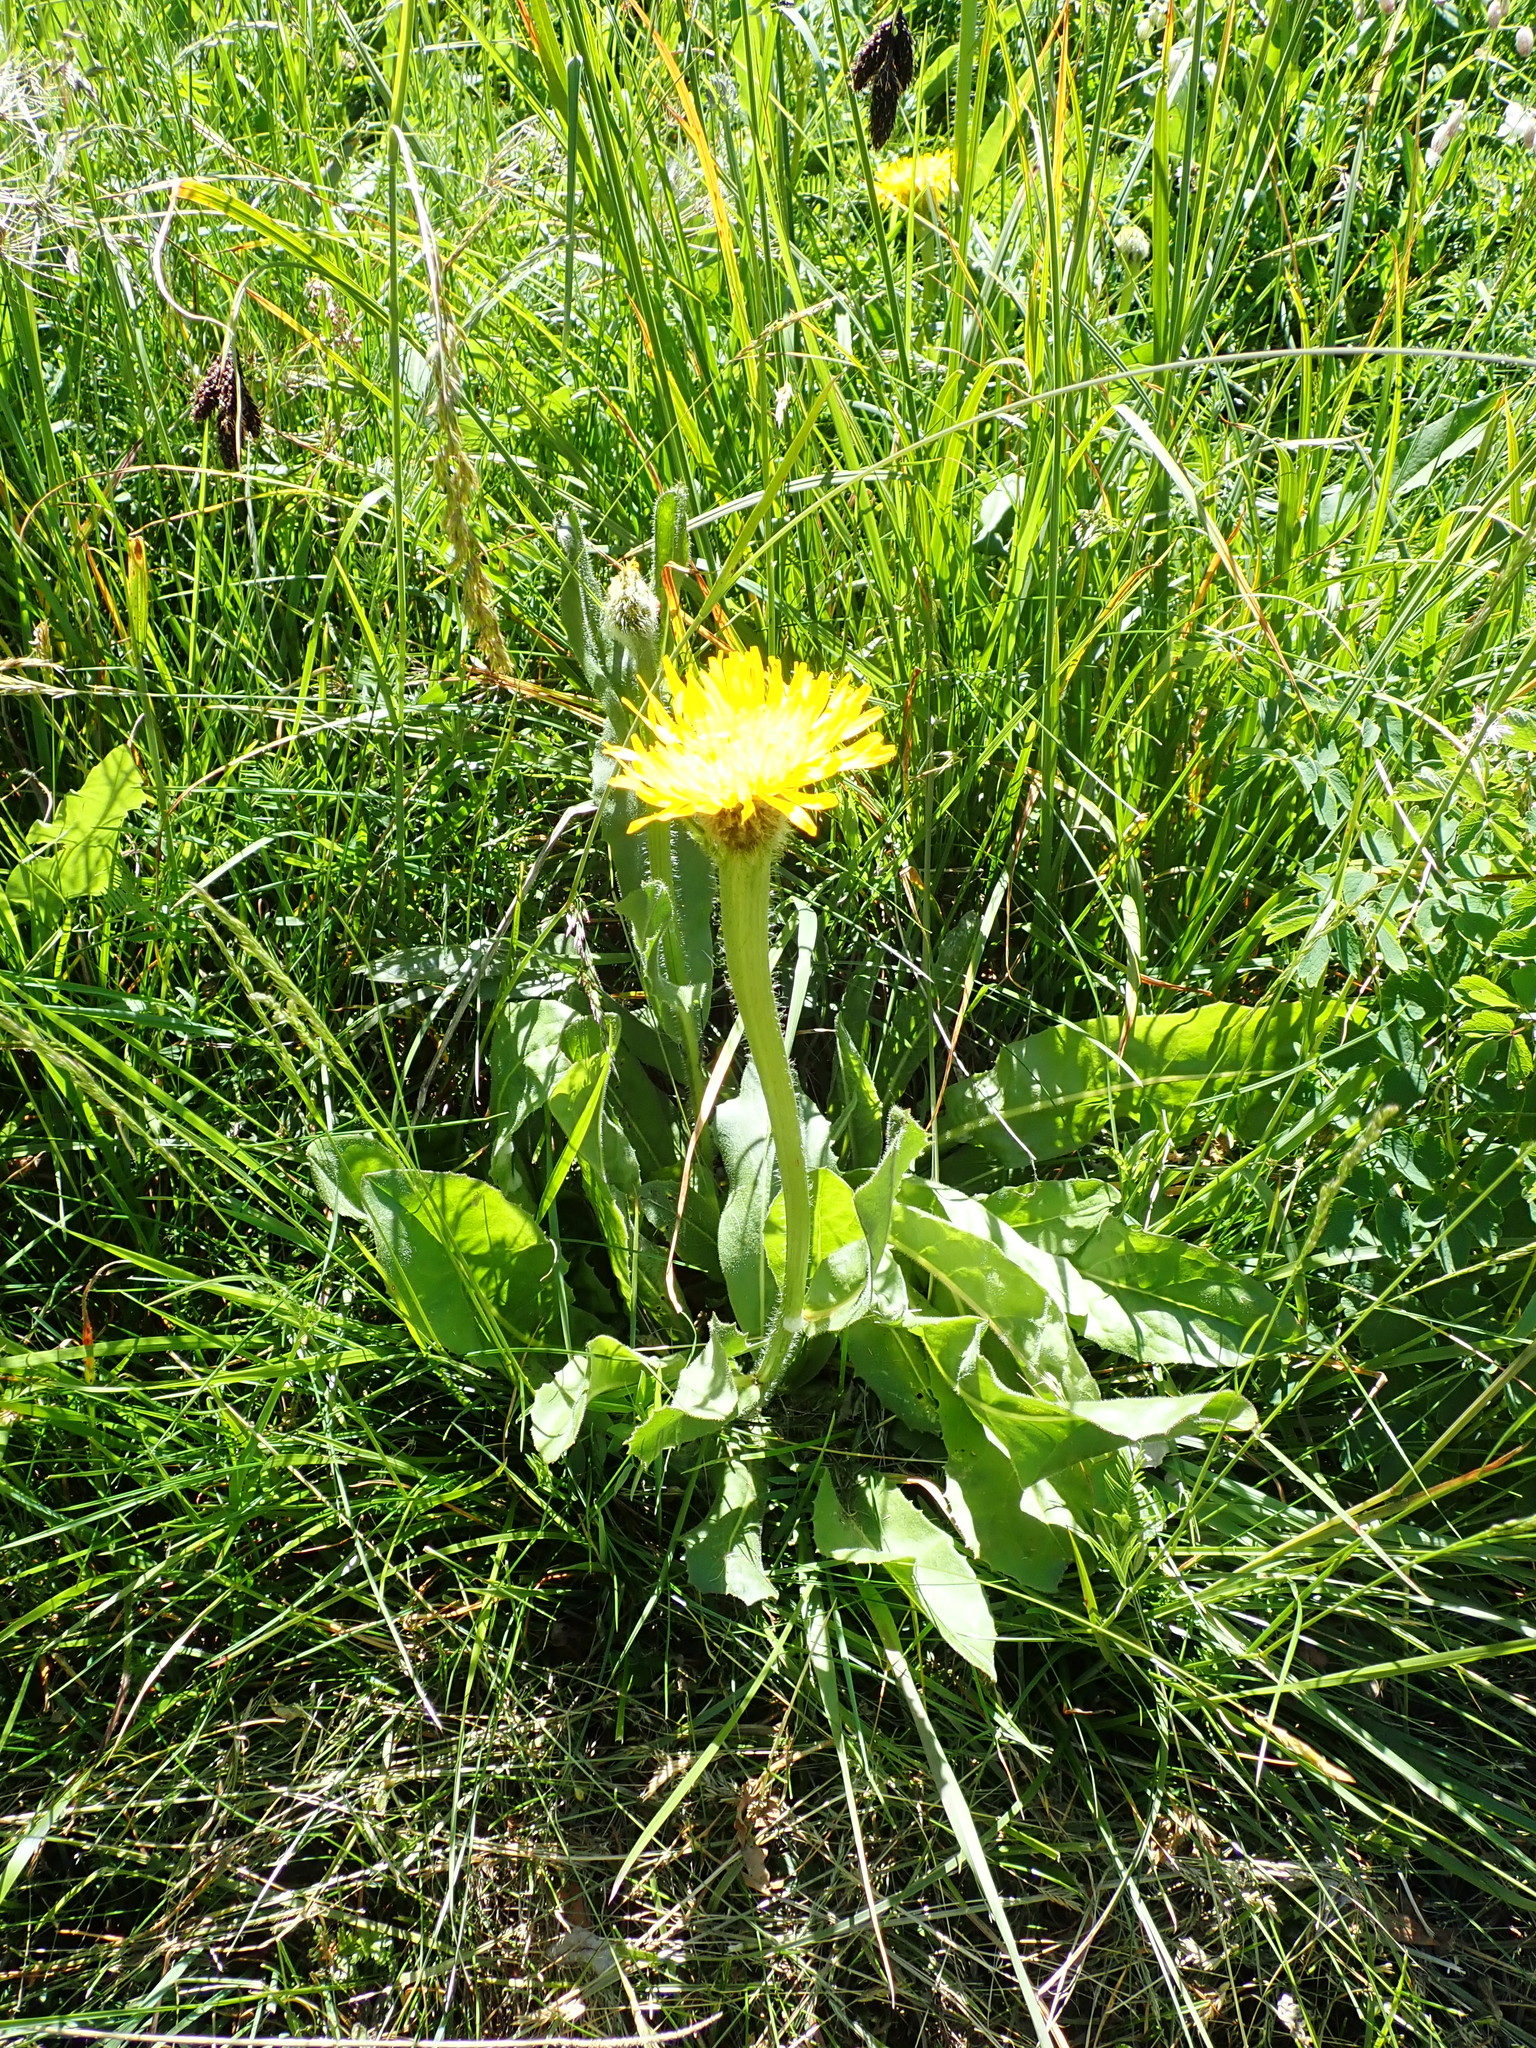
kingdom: Plantae
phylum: Tracheophyta
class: Magnoliopsida
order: Asterales
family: Asteraceae
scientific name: Asteraceae
